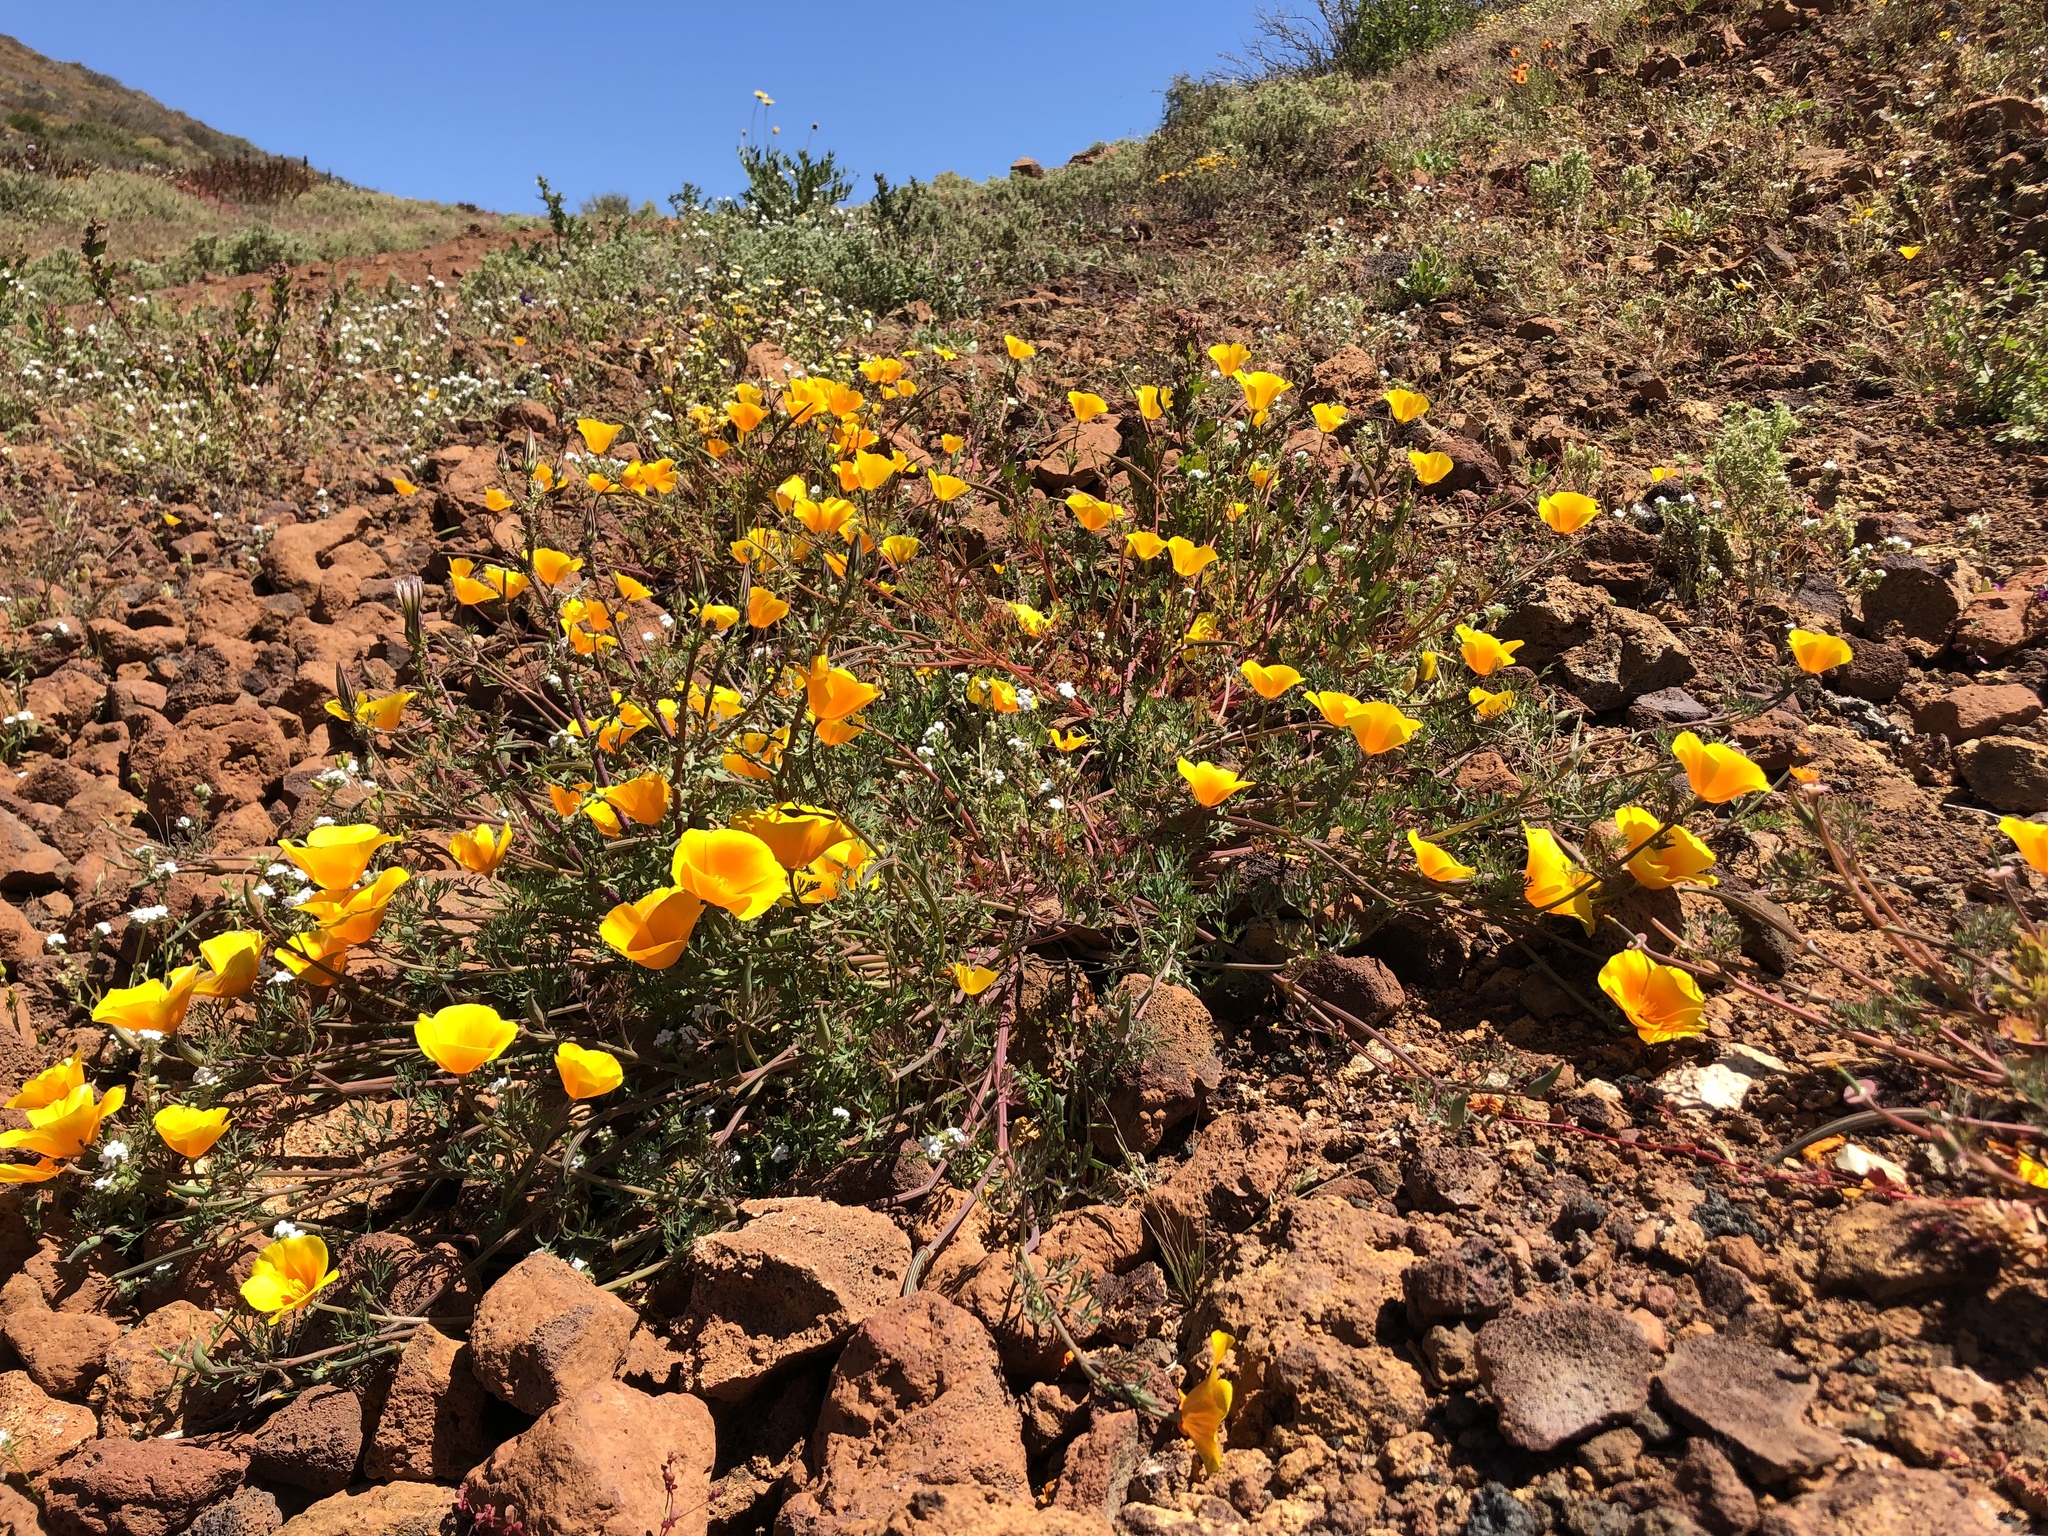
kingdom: Plantae
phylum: Tracheophyta
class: Magnoliopsida
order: Ranunculales
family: Papaveraceae
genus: Eschscholzia
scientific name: Eschscholzia californica
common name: California poppy
